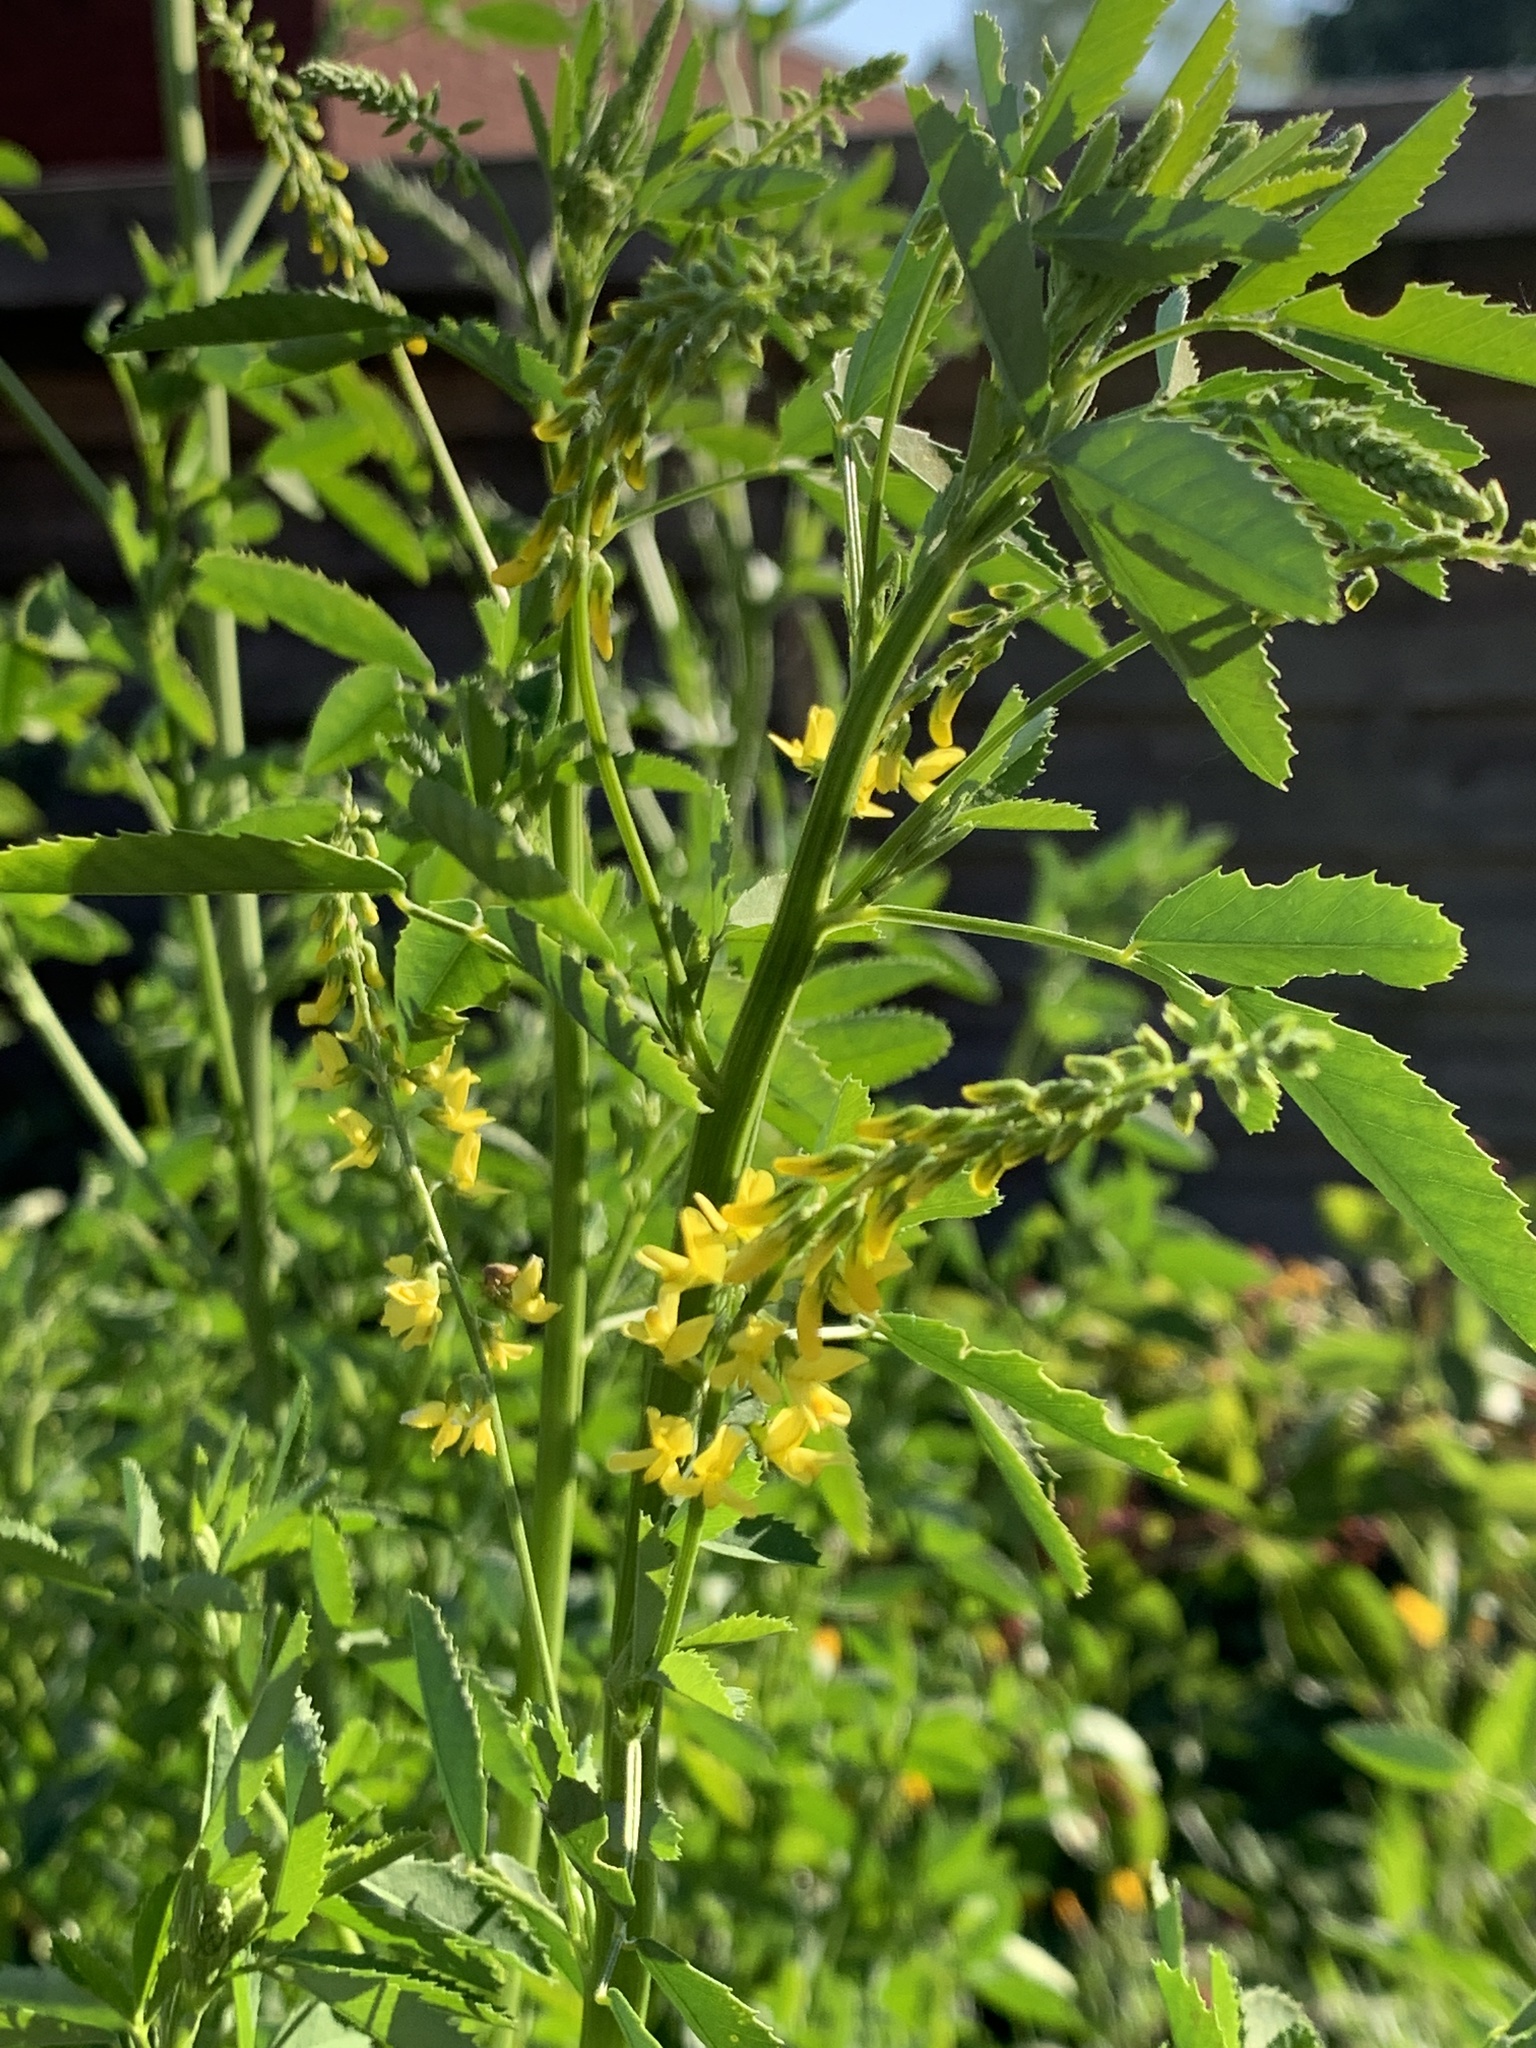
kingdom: Plantae
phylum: Tracheophyta
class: Magnoliopsida
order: Fabales
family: Fabaceae
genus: Melilotus
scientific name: Melilotus officinalis
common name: Sweetclover
